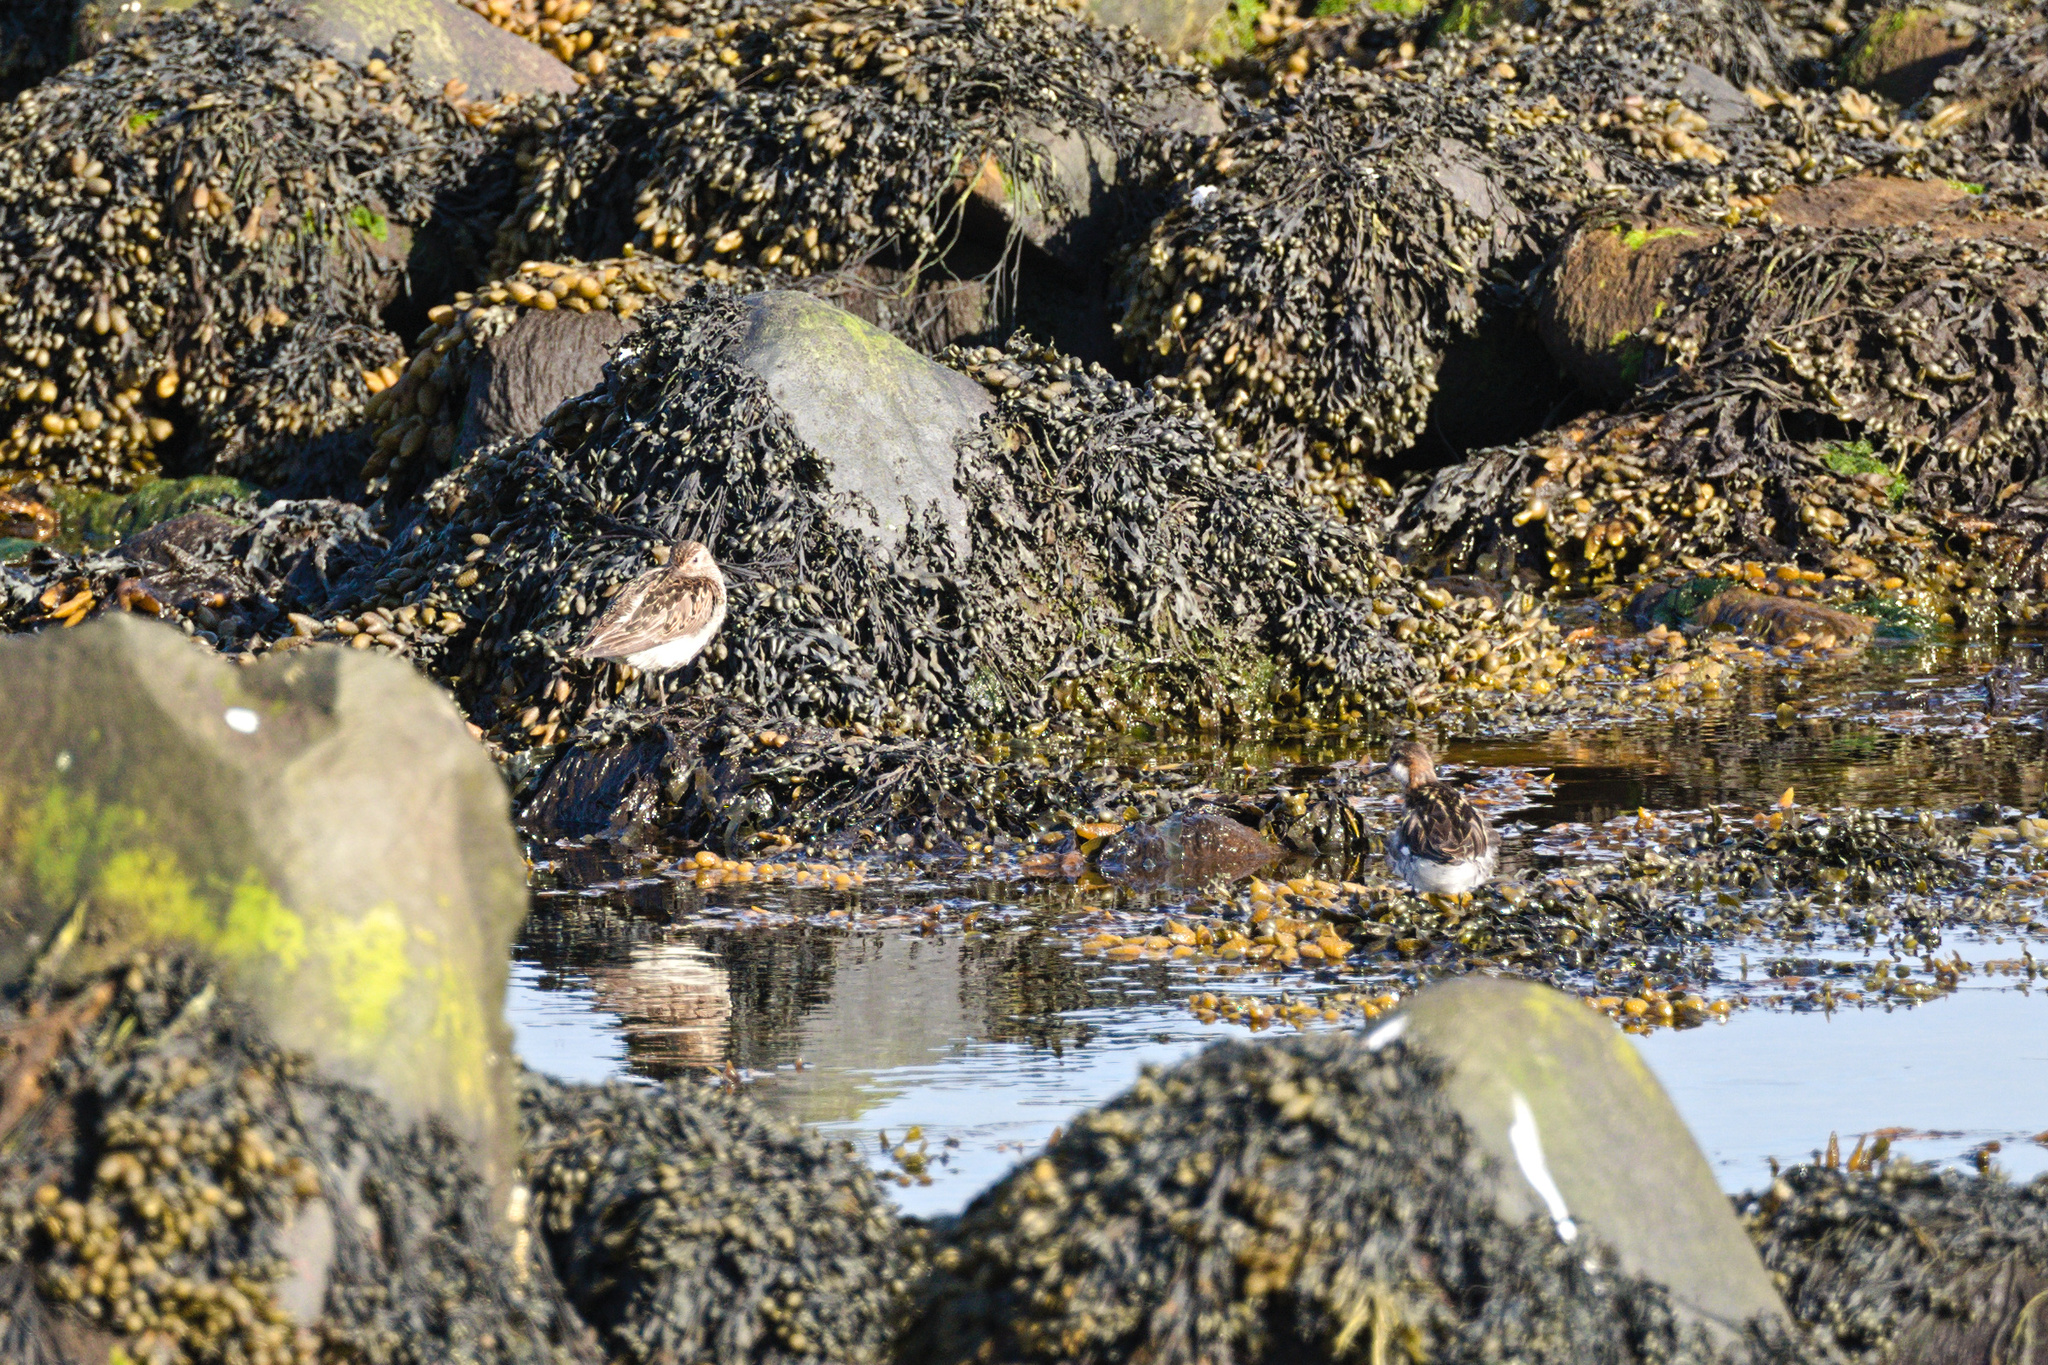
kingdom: Animalia
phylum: Chordata
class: Aves
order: Charadriiformes
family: Scolopacidae
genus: Phalaropus
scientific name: Phalaropus lobatus
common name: Red-necked phalarope
